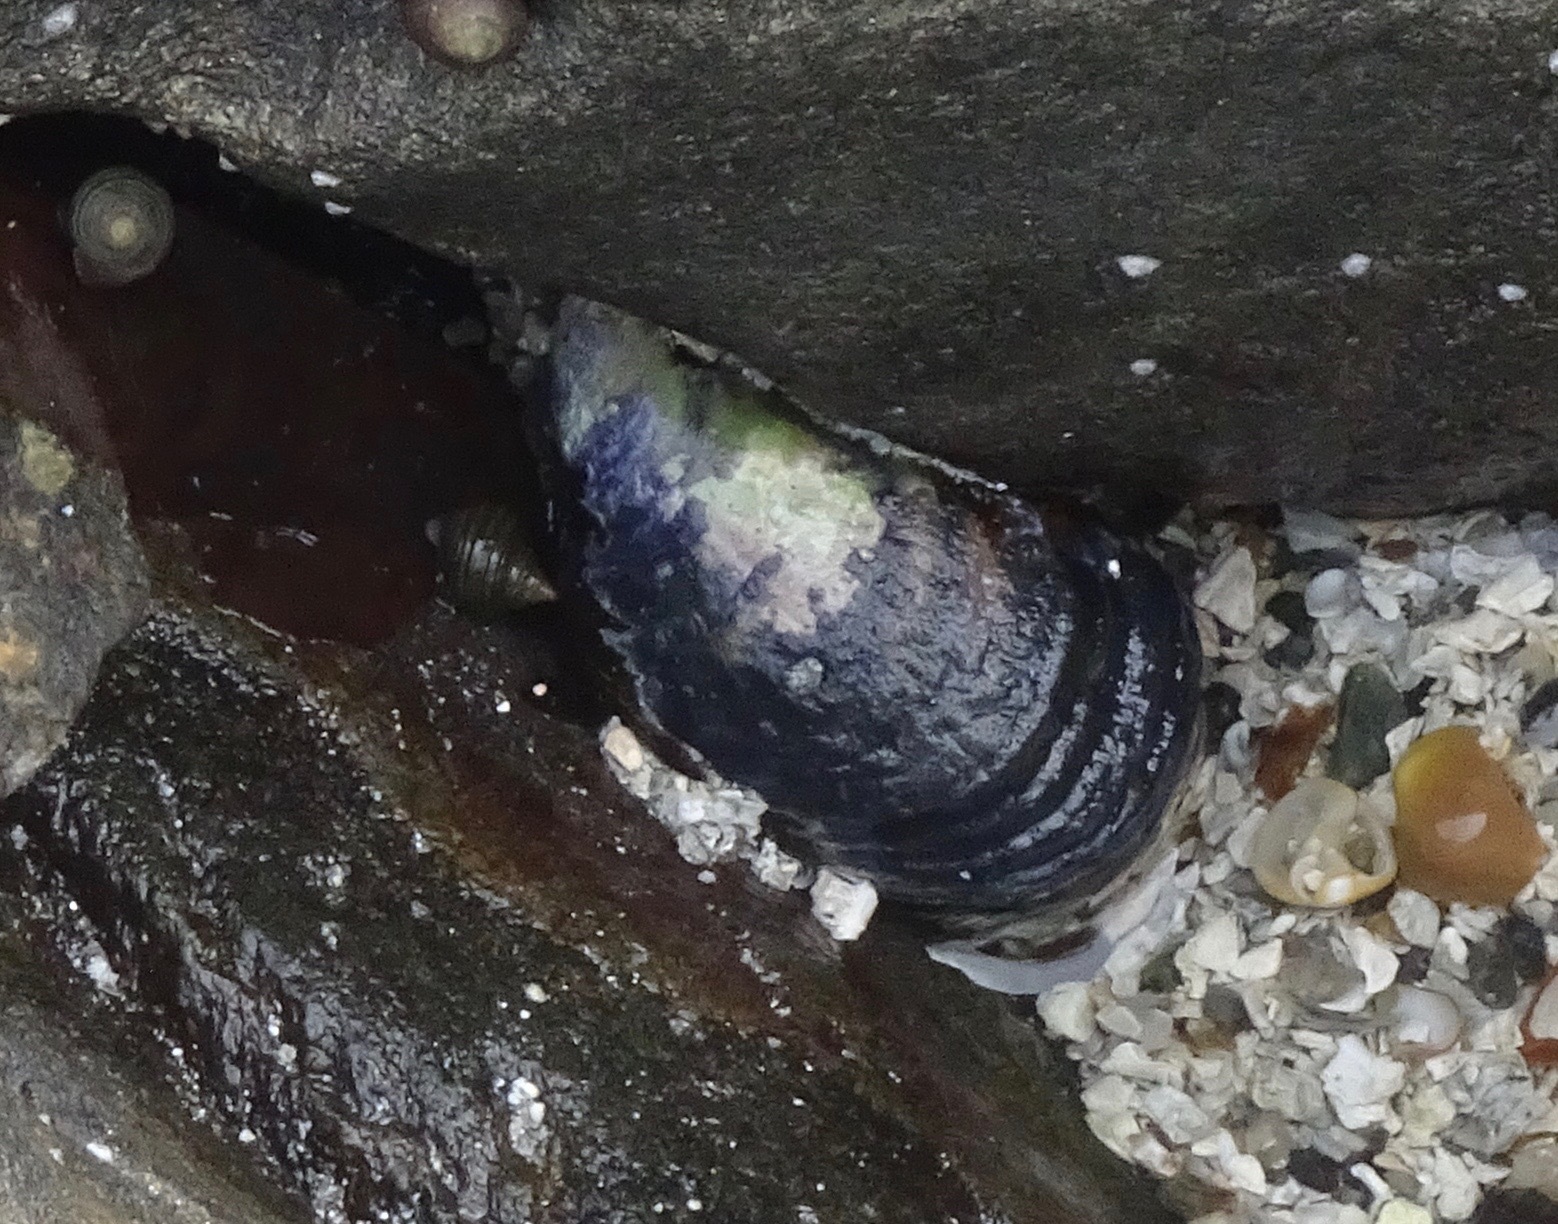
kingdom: Animalia
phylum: Mollusca
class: Bivalvia
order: Mytilida
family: Mytilidae
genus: Mytilus
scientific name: Mytilus edulis
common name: Blue mussel
